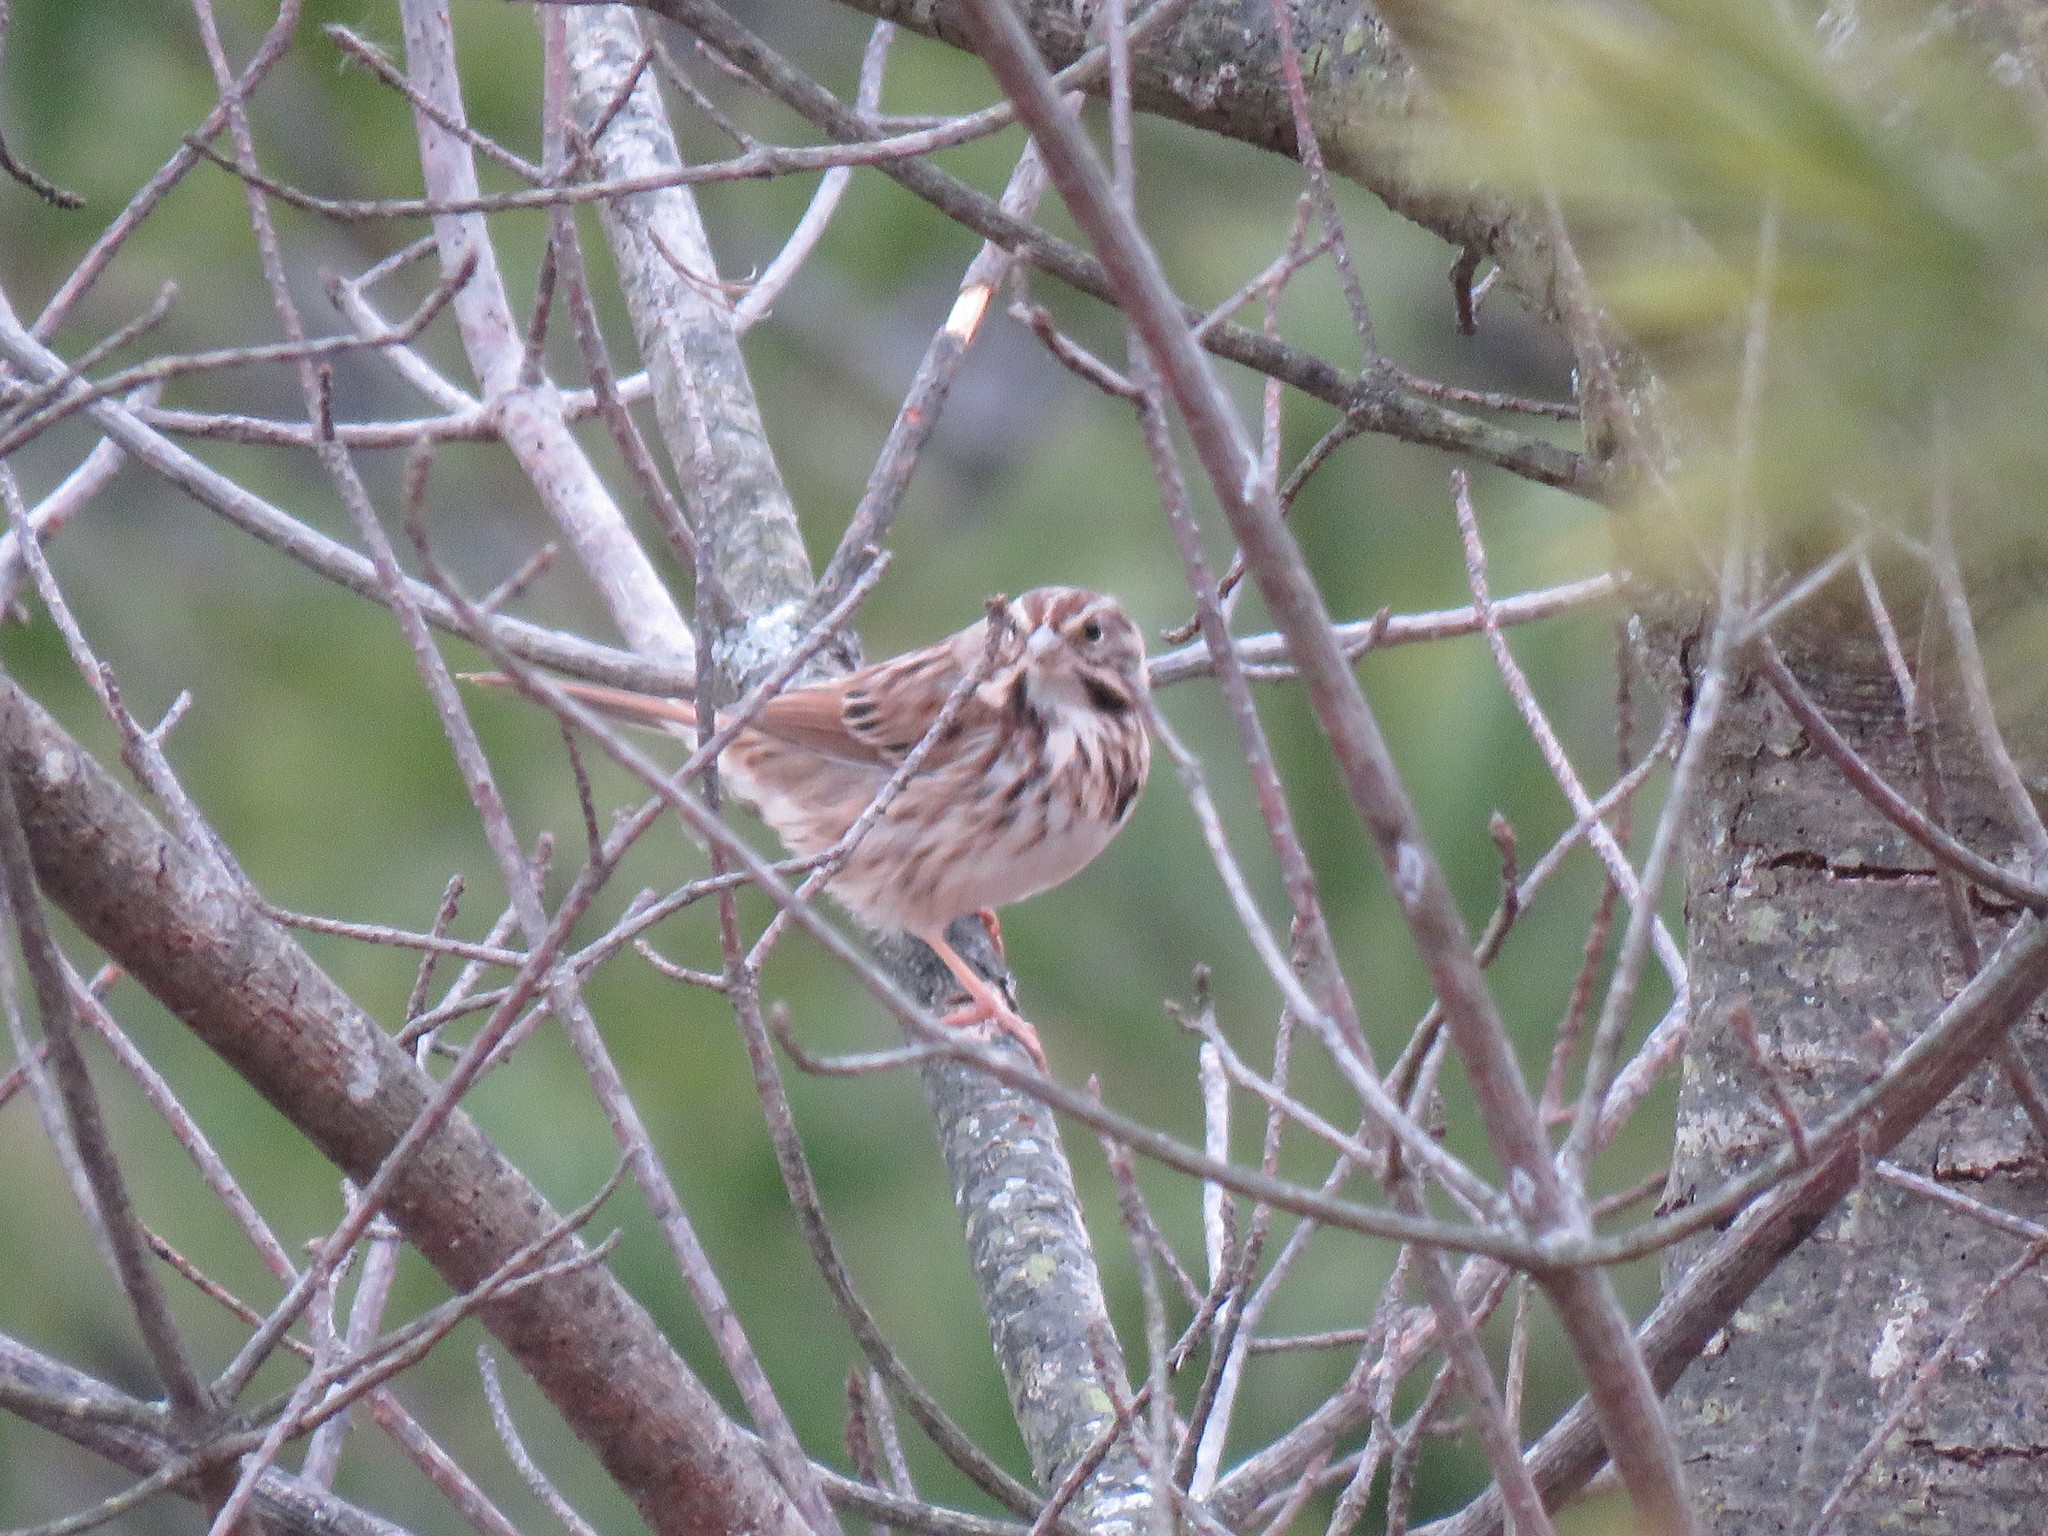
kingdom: Animalia
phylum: Chordata
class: Aves
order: Passeriformes
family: Passerellidae
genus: Melospiza
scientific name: Melospiza melodia
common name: Song sparrow
